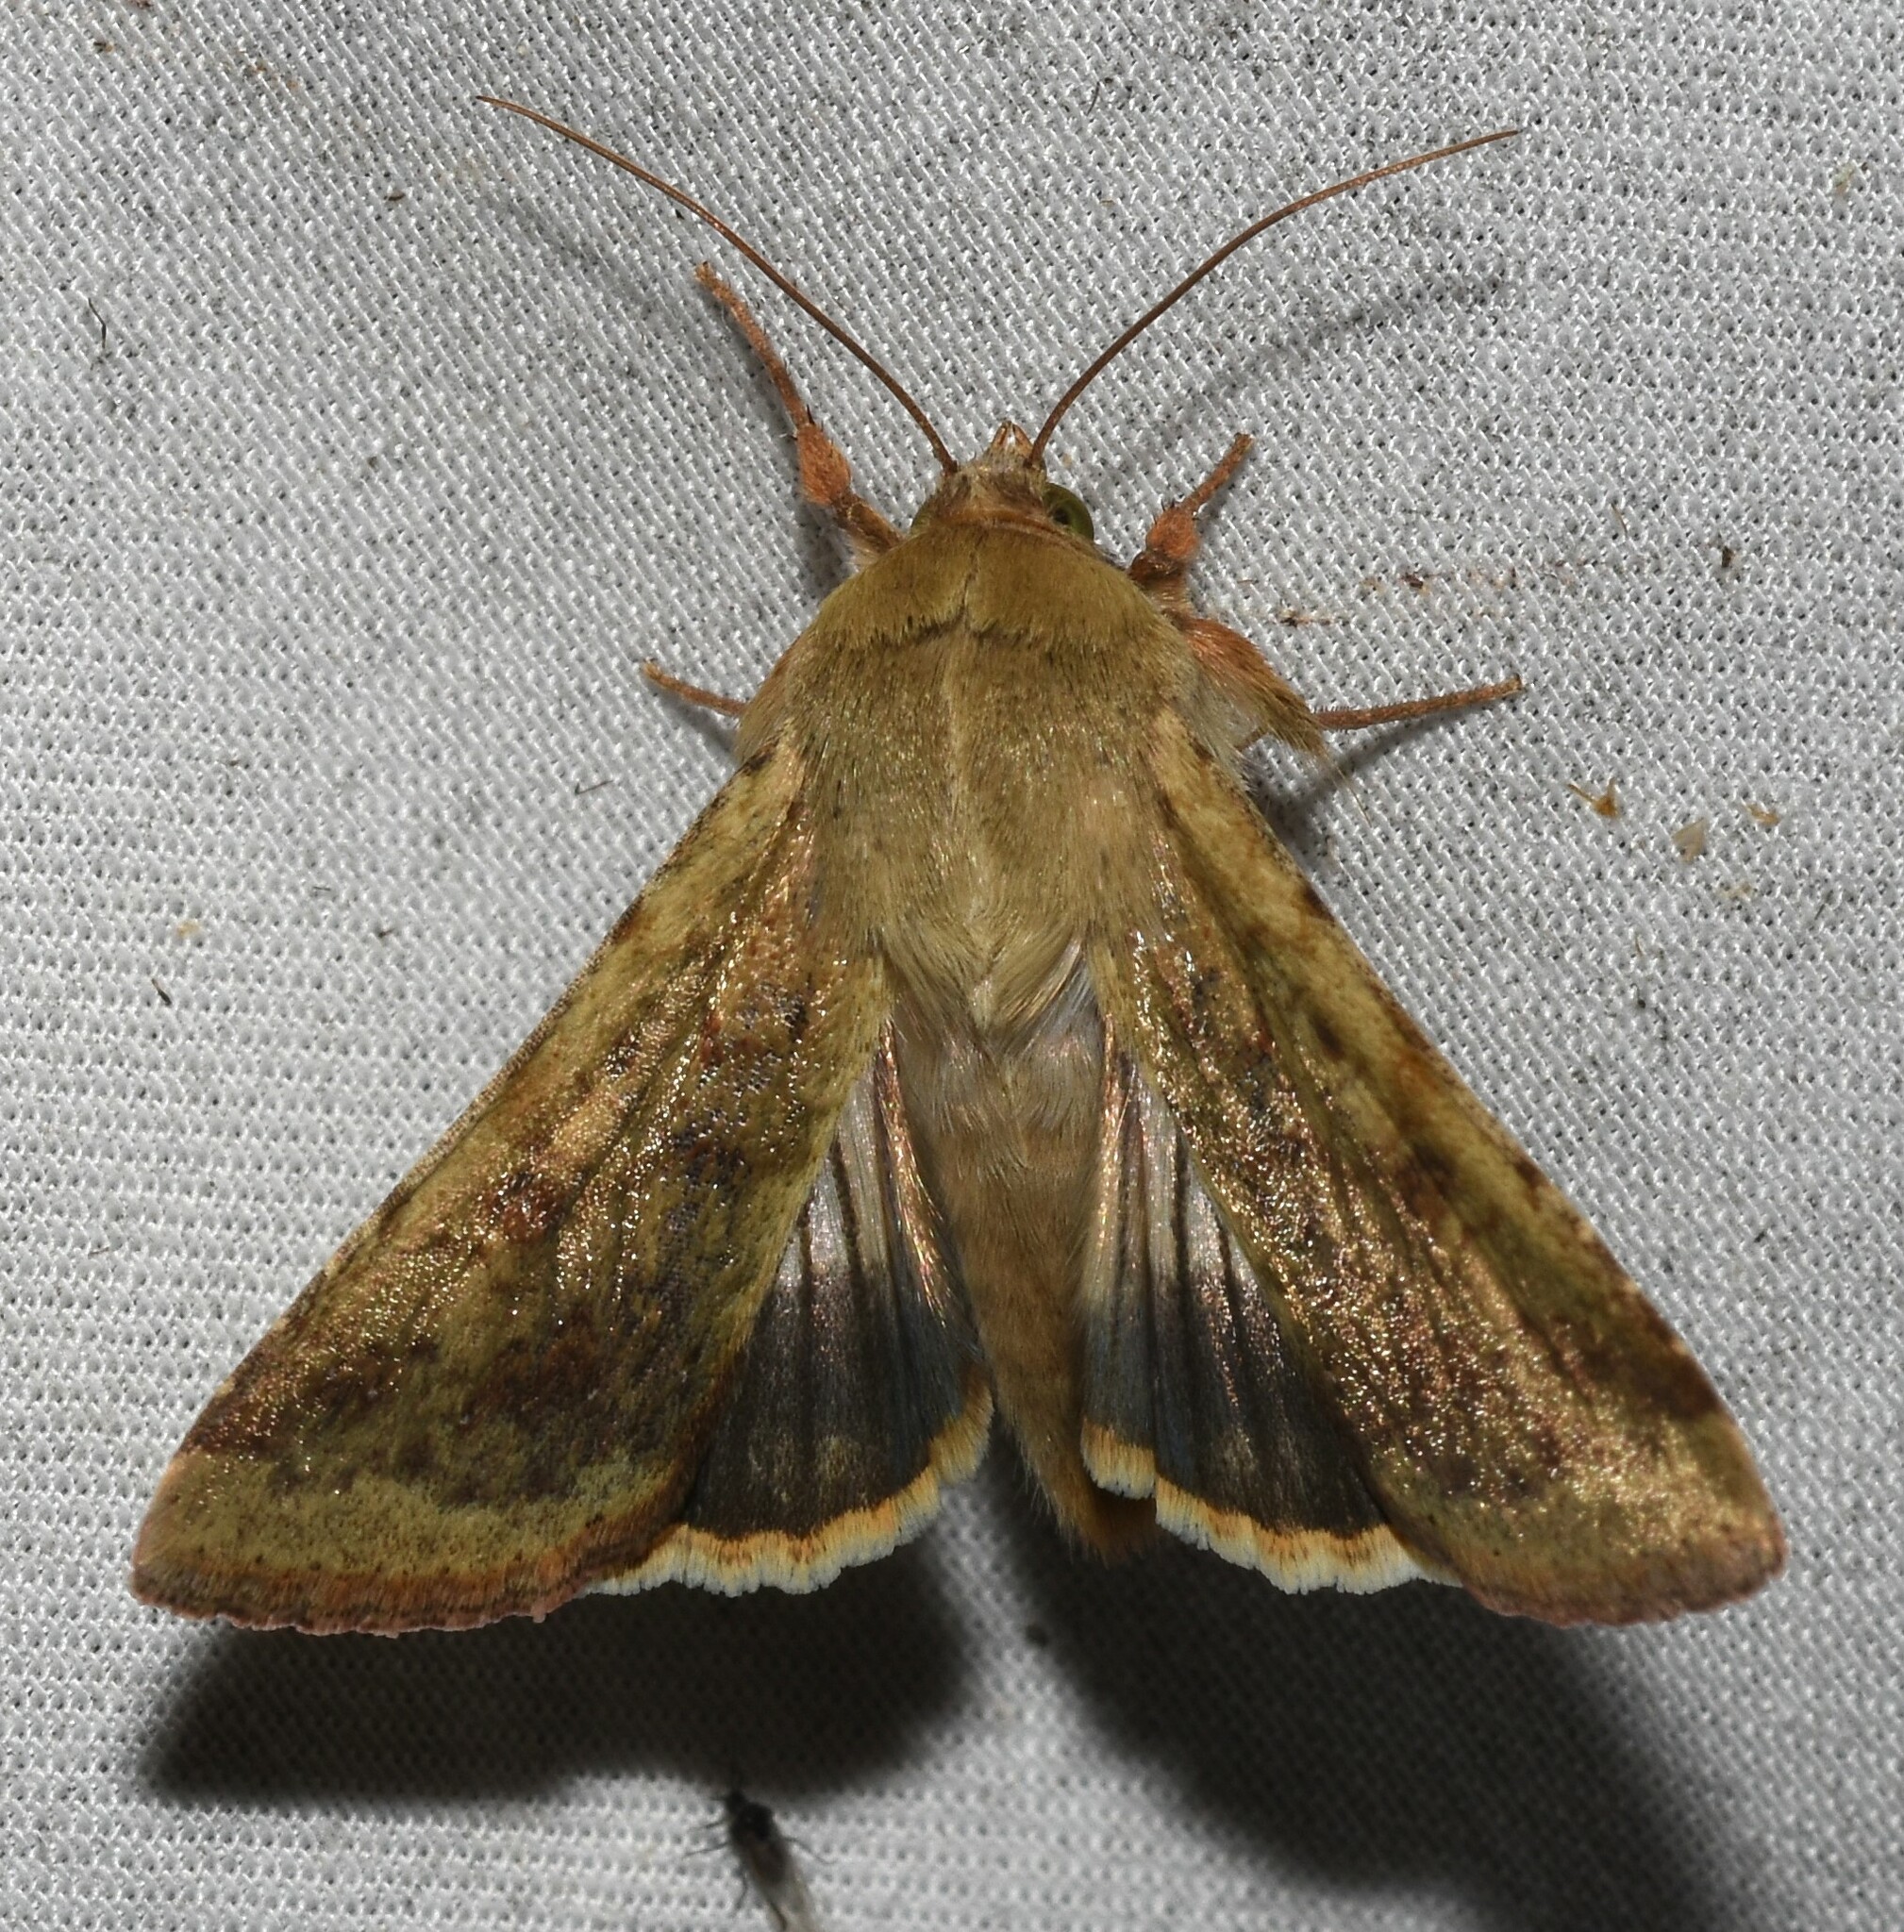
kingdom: Animalia
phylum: Arthropoda
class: Insecta
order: Lepidoptera
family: Noctuidae
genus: Helicoverpa
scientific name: Helicoverpa zea
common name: Bollworm
